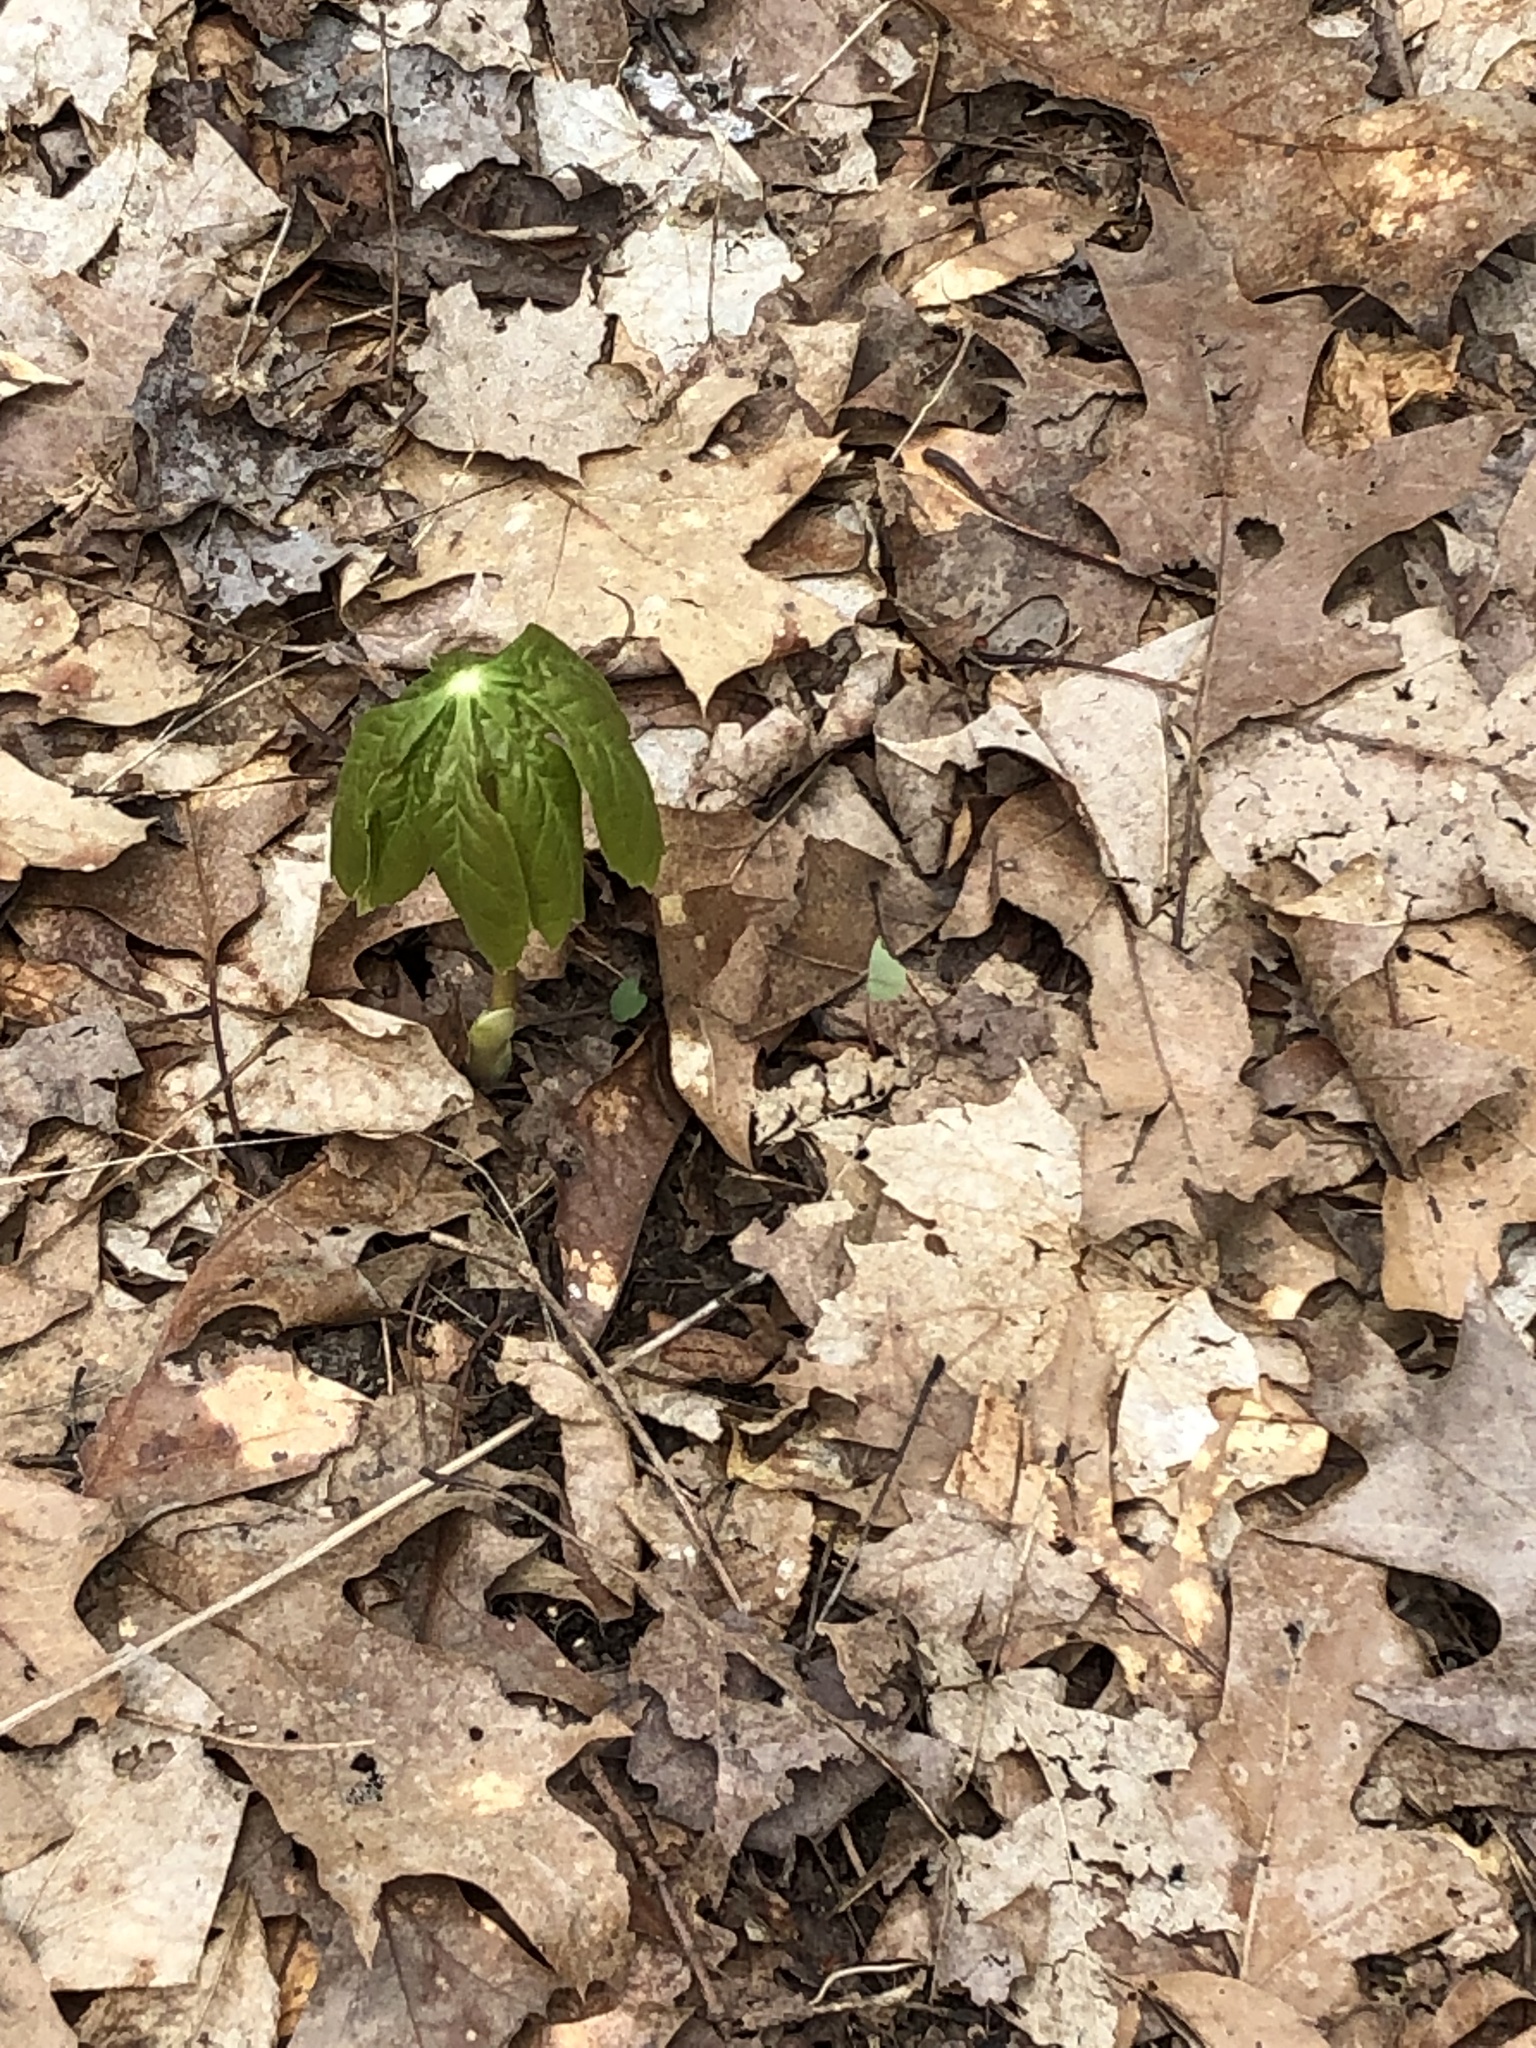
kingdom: Plantae
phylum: Tracheophyta
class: Magnoliopsida
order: Ranunculales
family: Berberidaceae
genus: Podophyllum
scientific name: Podophyllum peltatum
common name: Wild mandrake
